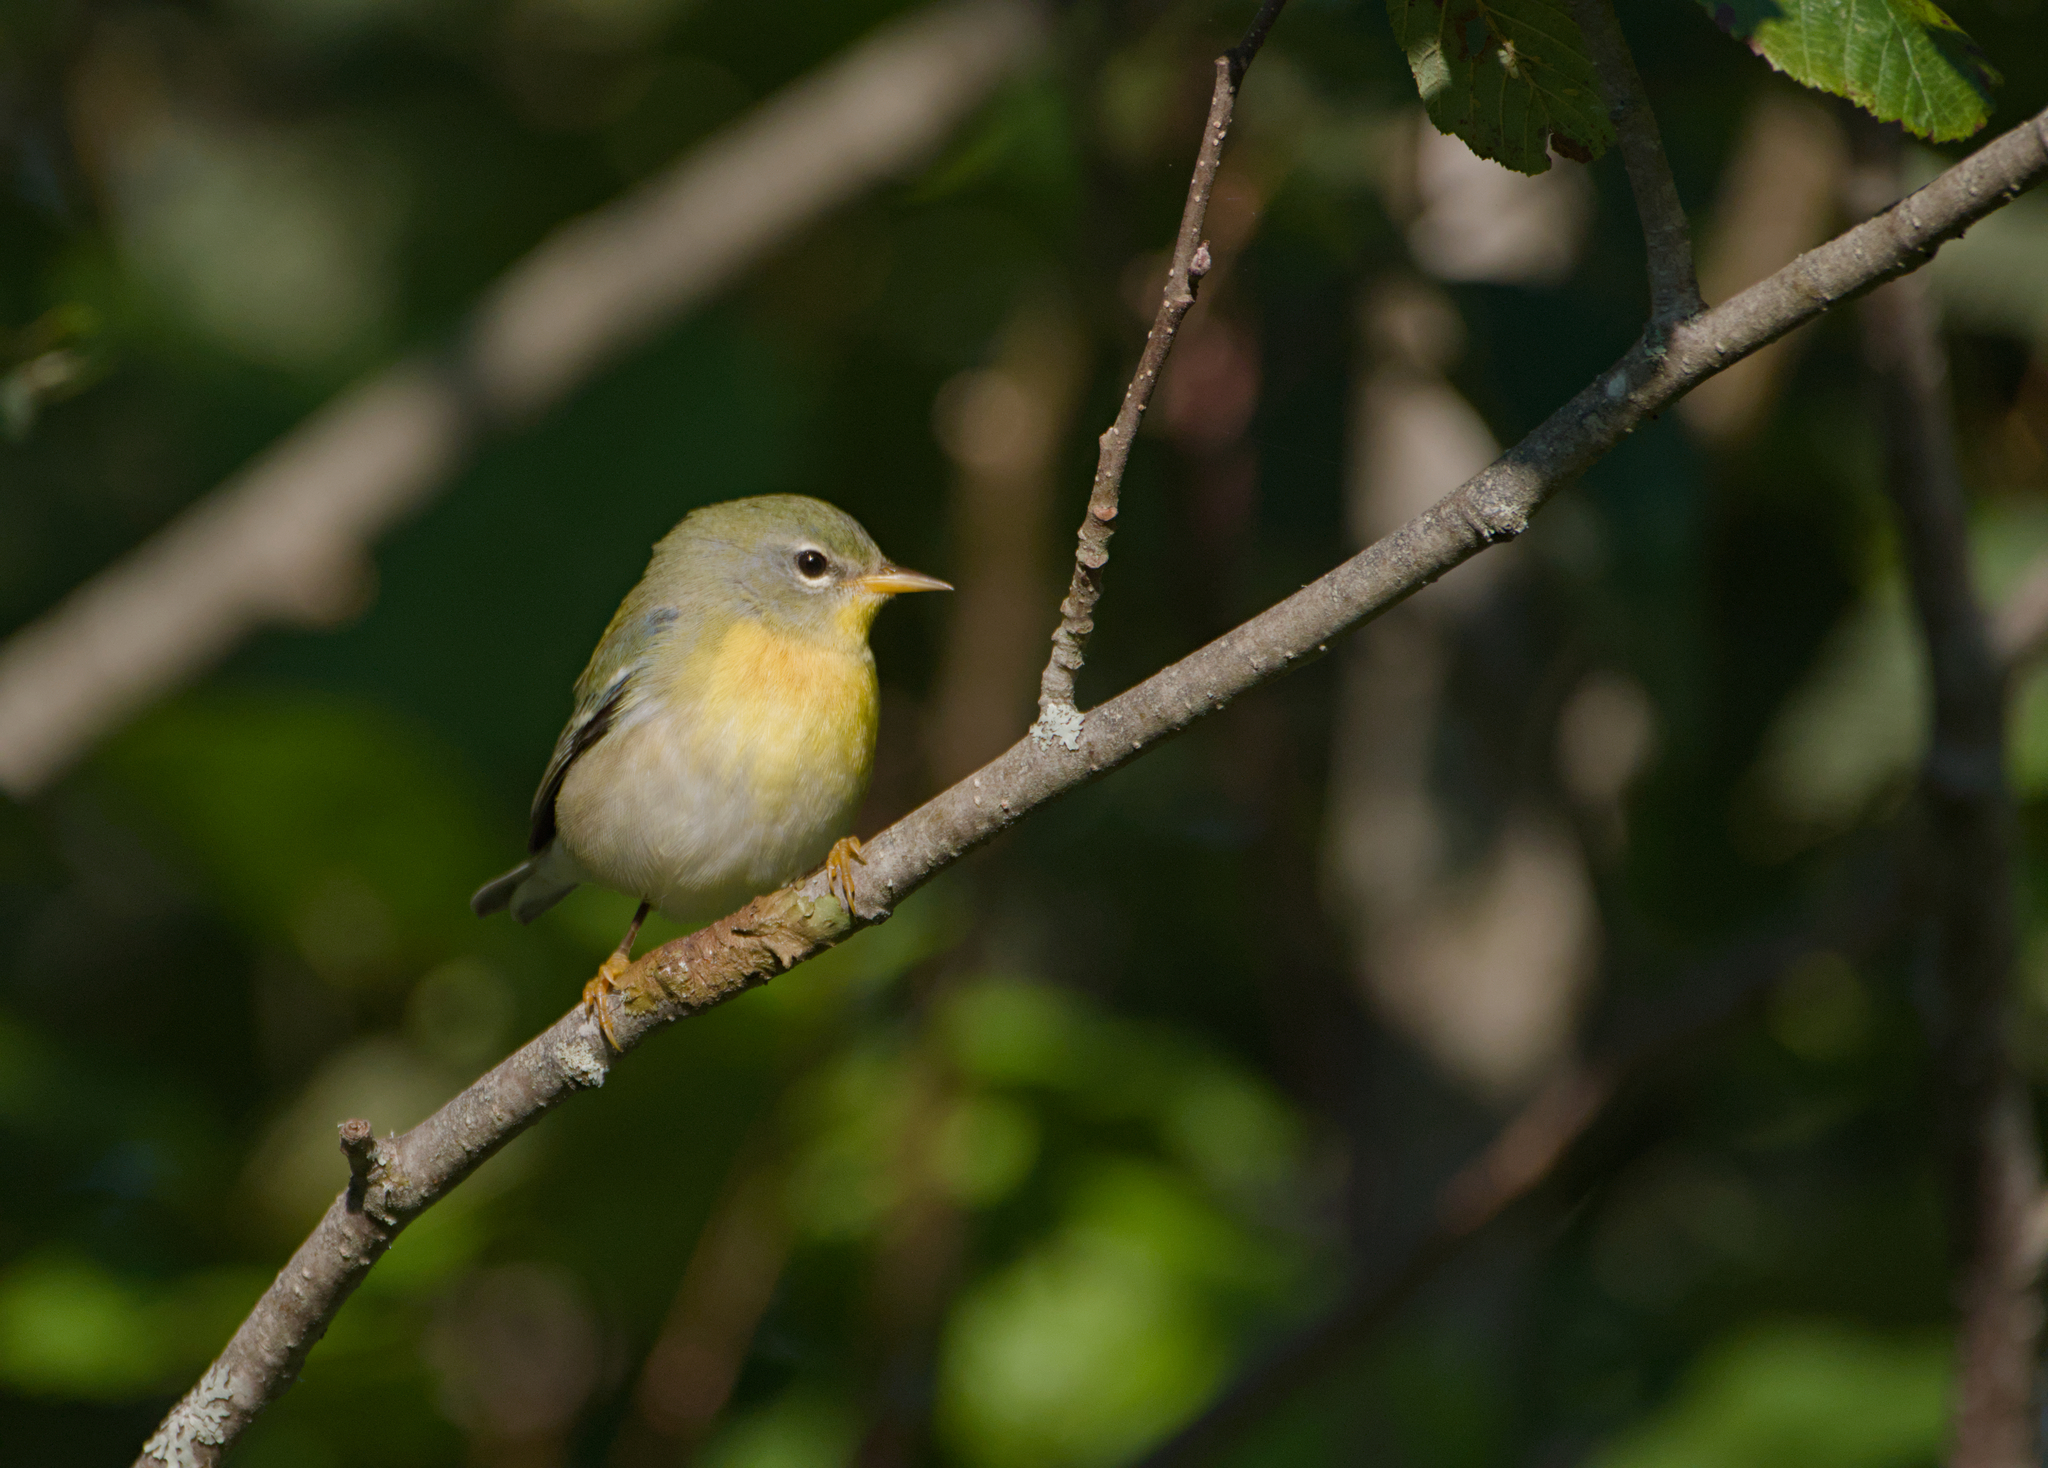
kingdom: Animalia
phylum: Chordata
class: Aves
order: Passeriformes
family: Parulidae
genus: Setophaga
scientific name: Setophaga americana
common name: Northern parula
